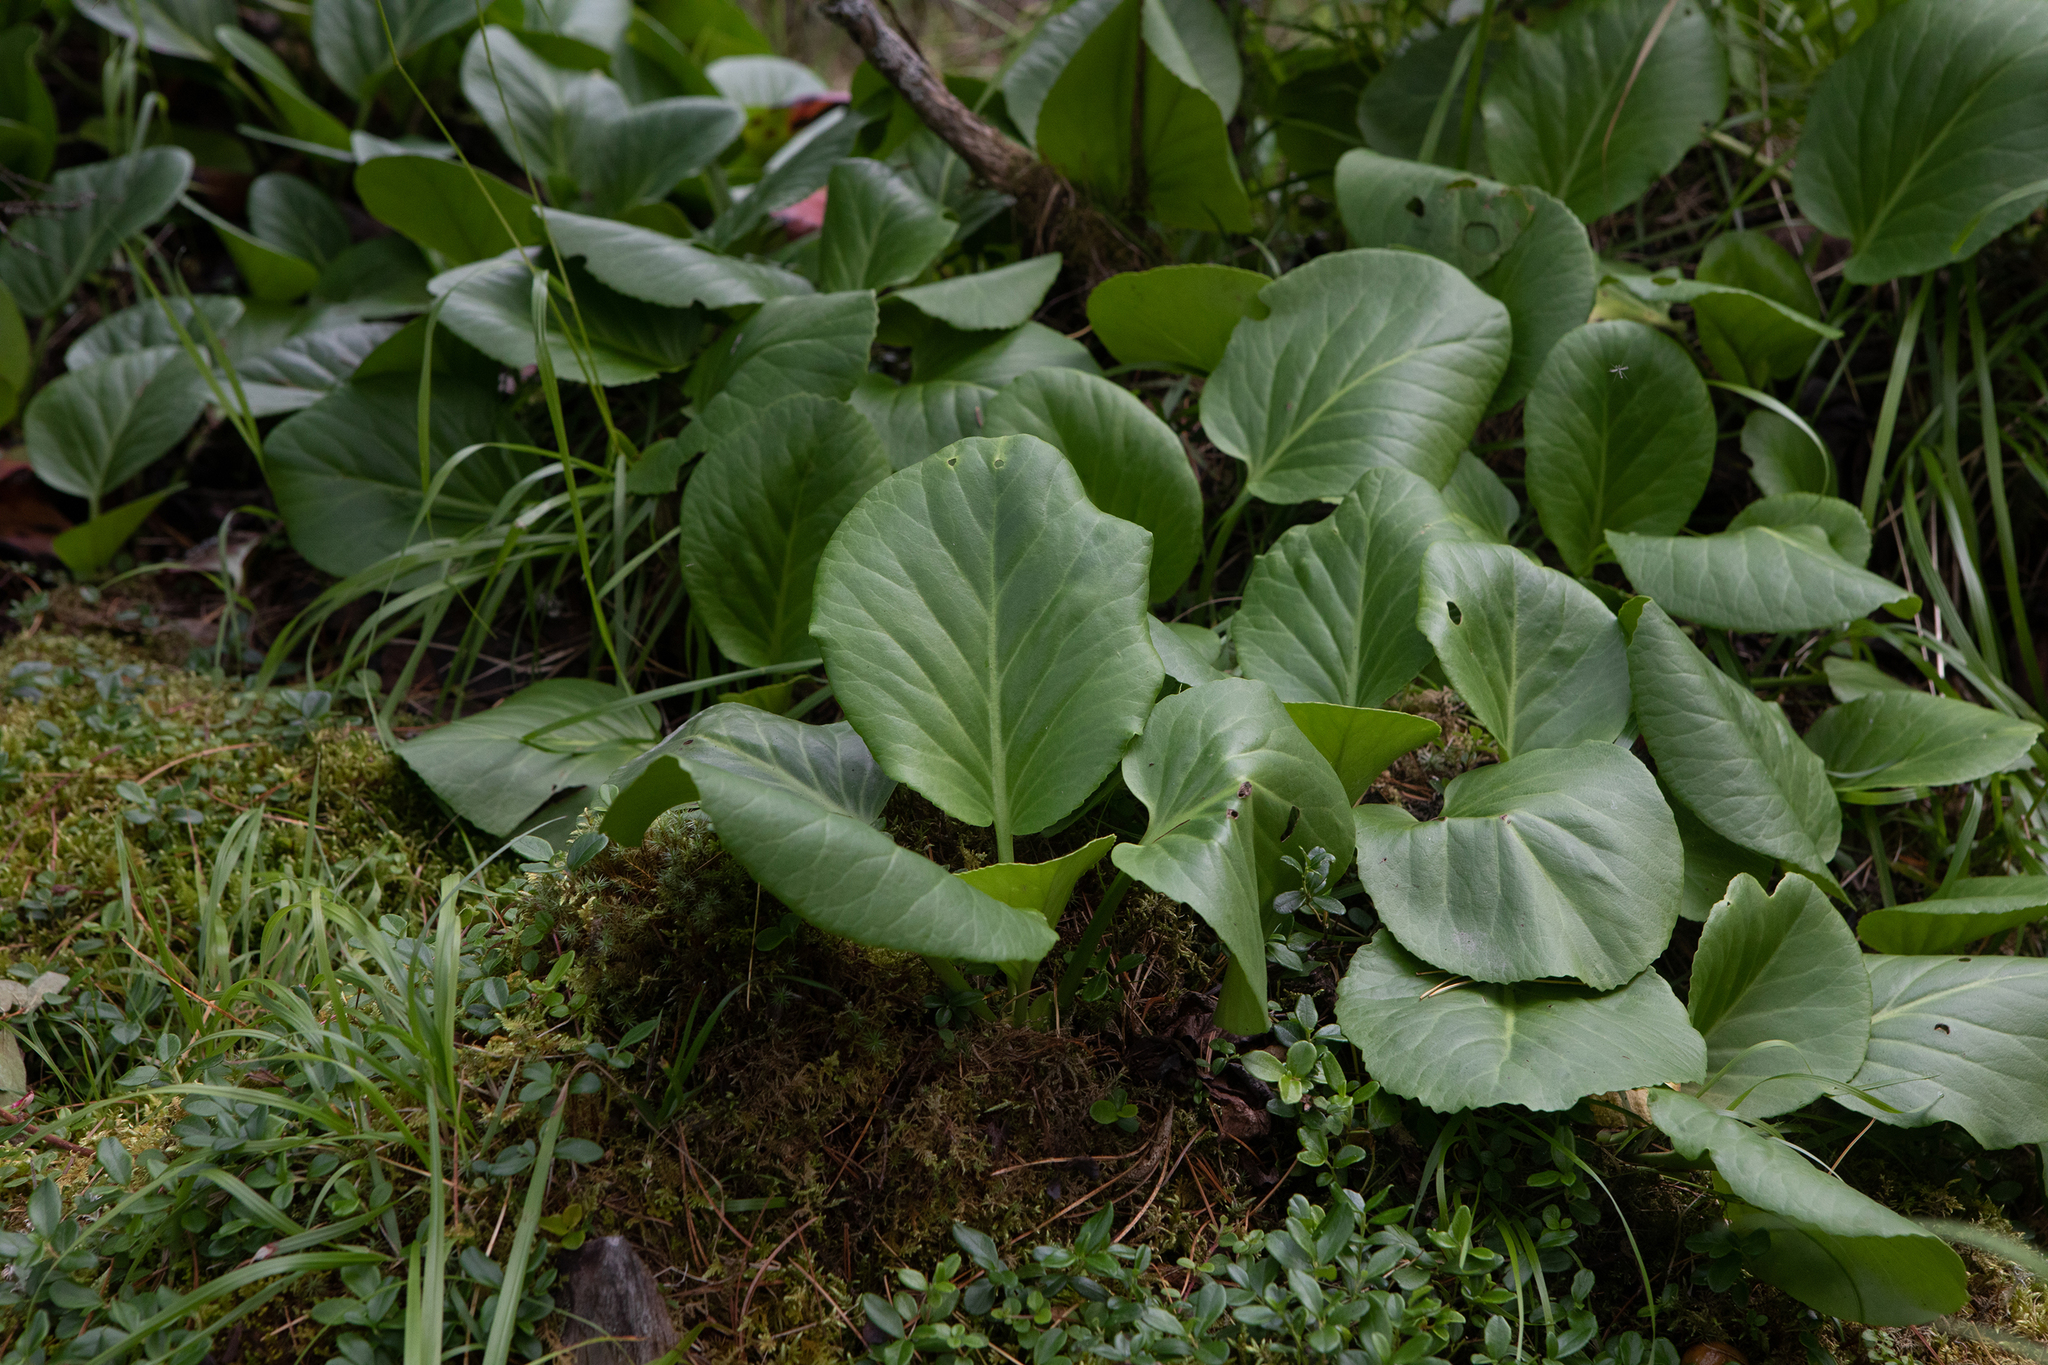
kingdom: Plantae
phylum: Tracheophyta
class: Magnoliopsida
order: Saxifragales
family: Saxifragaceae
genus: Bergenia
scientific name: Bergenia crassifolia
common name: Elephant-ears
